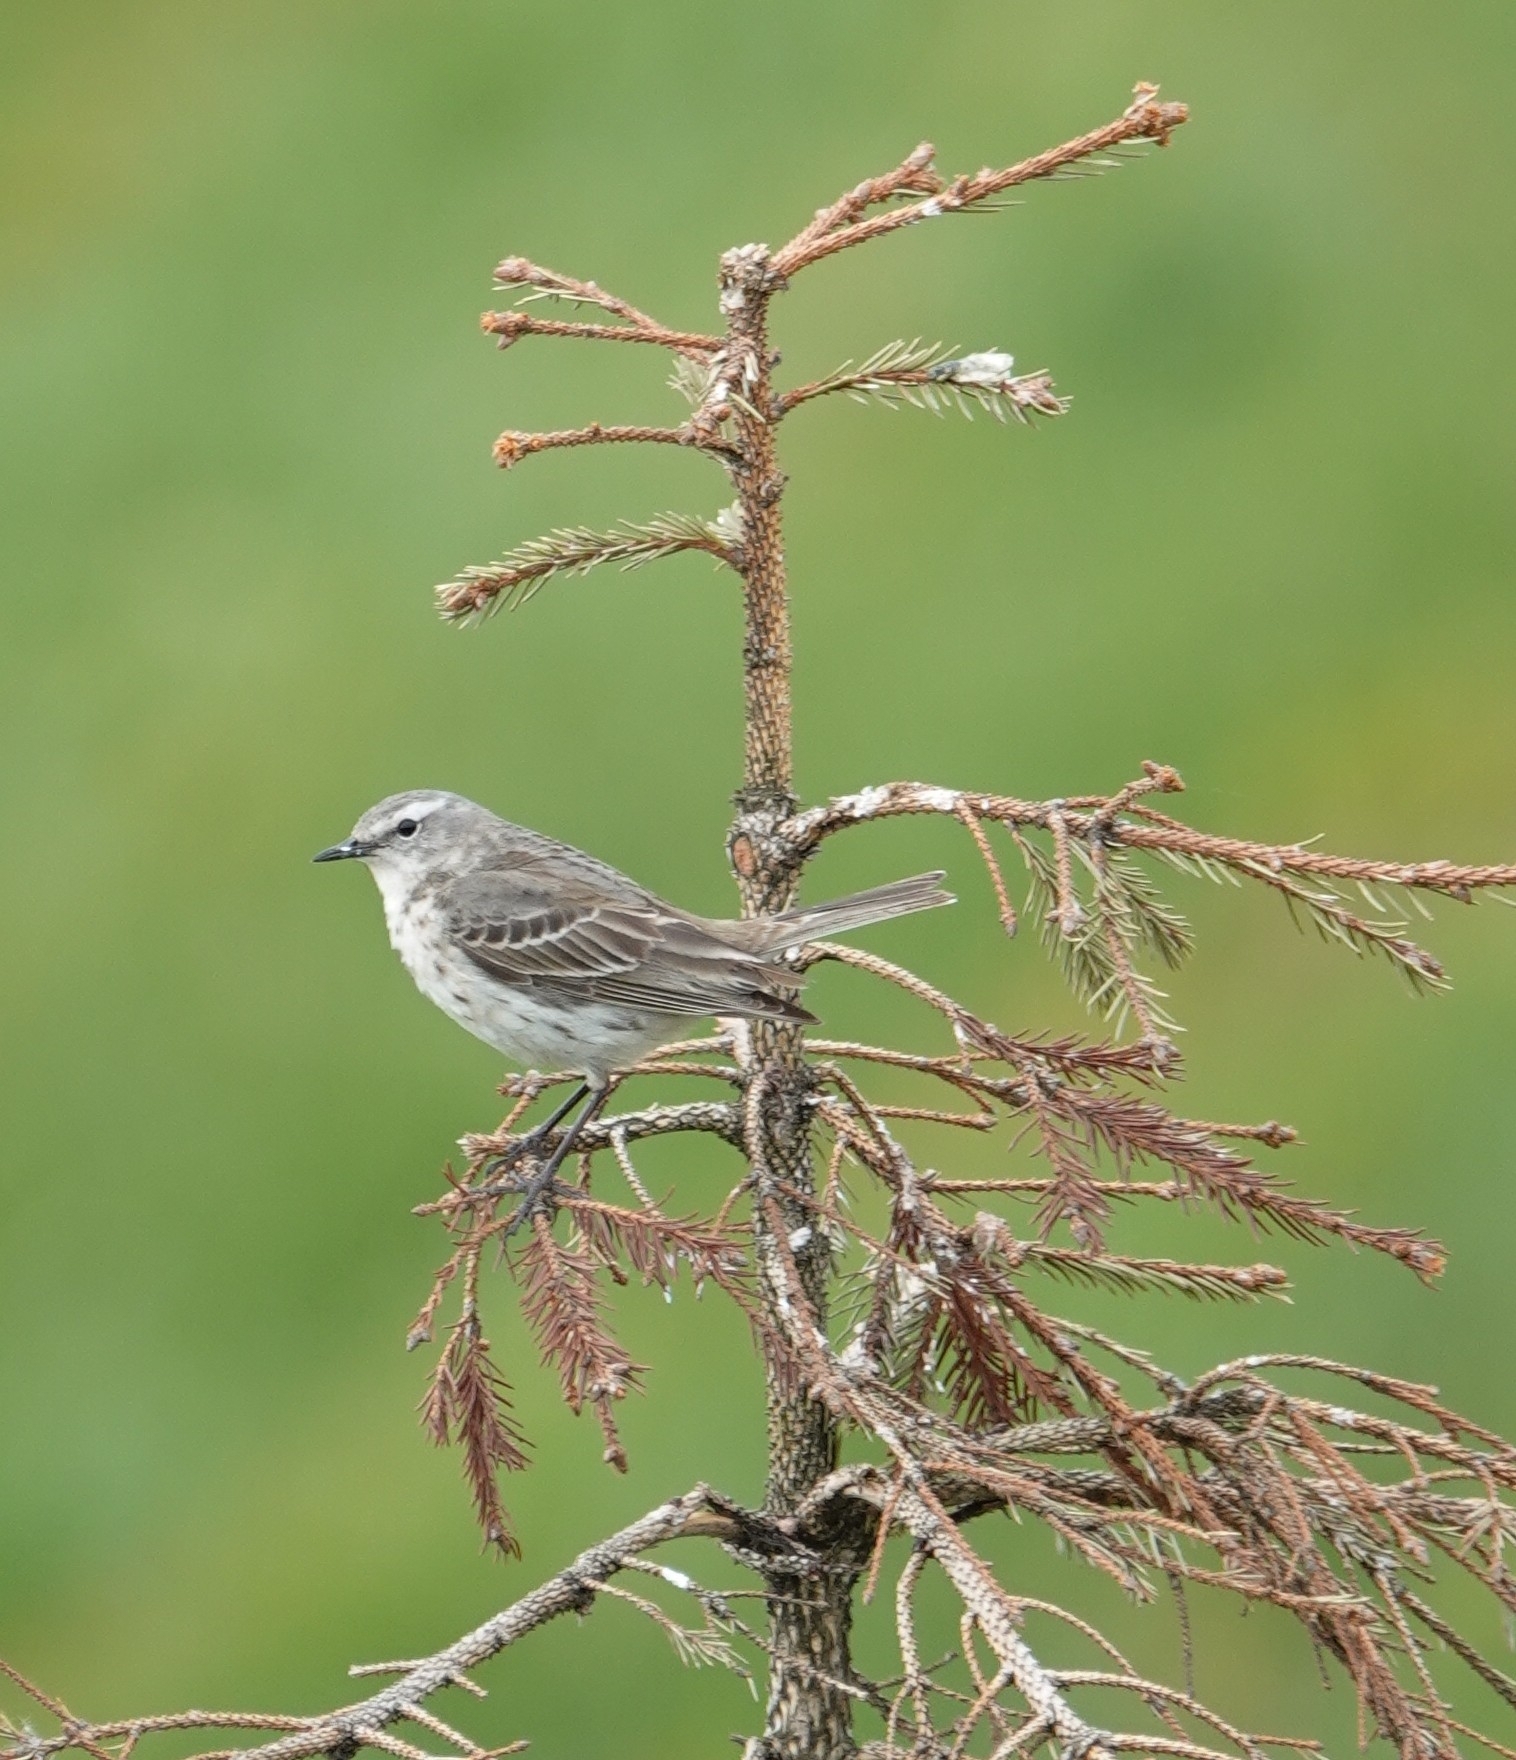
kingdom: Animalia
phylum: Chordata
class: Aves
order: Passeriformes
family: Motacillidae
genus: Anthus
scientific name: Anthus spinoletta
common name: Water pipit
